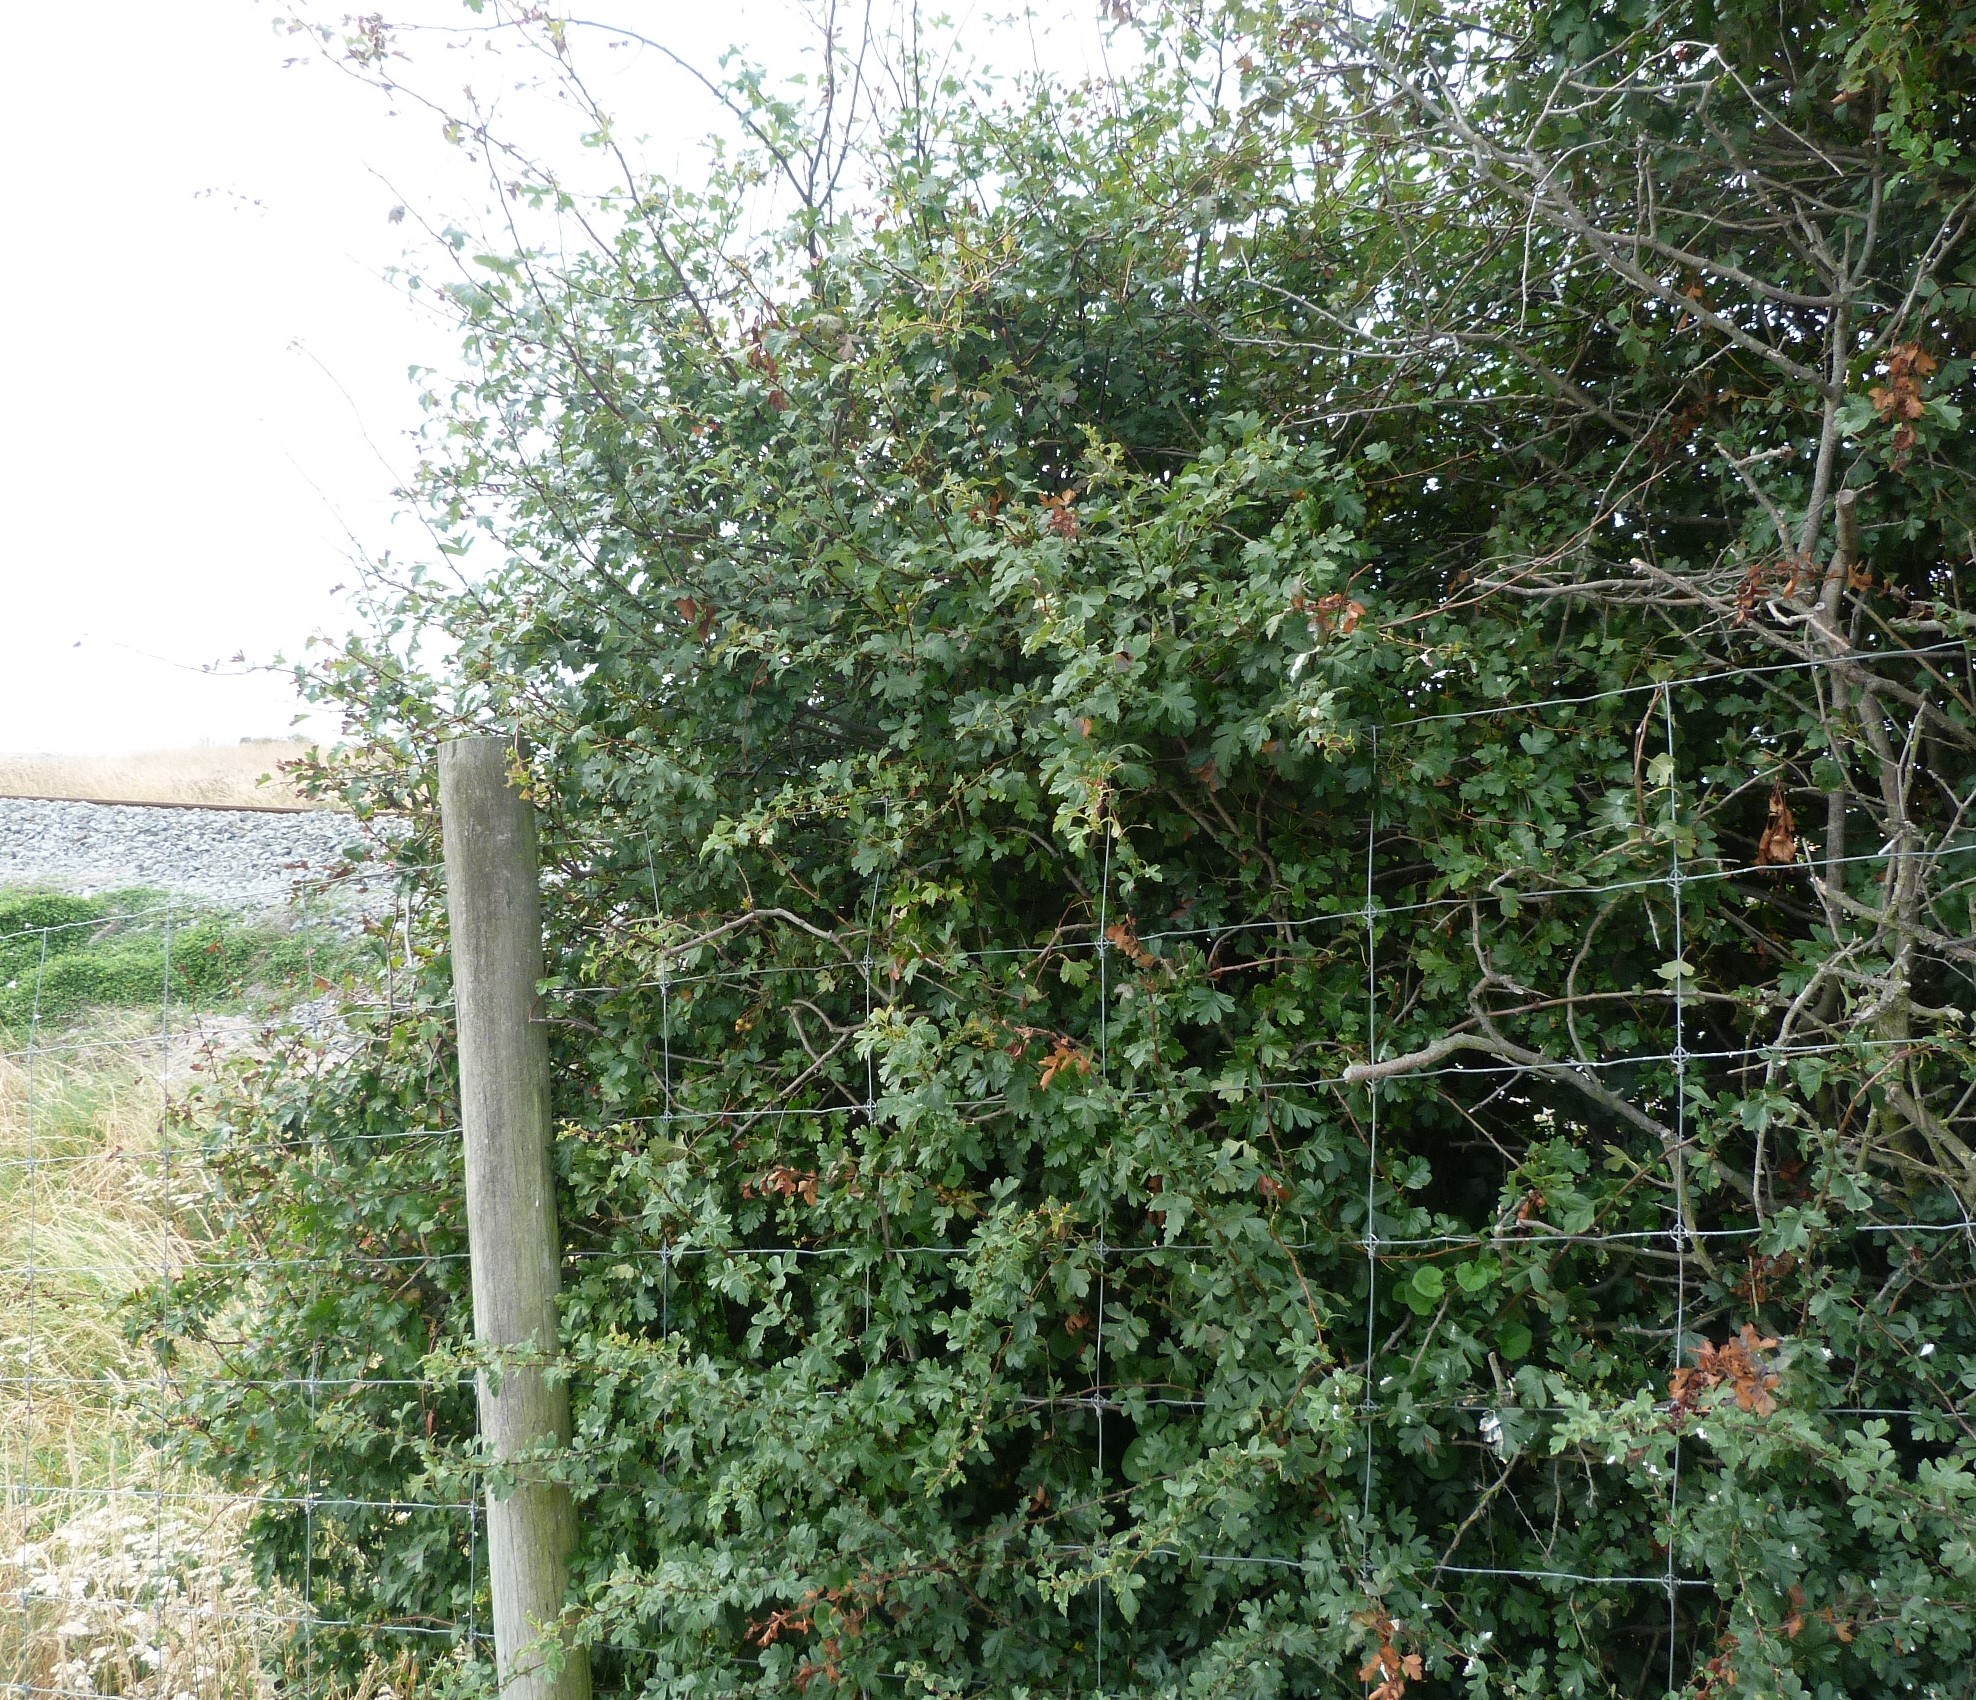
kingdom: Plantae
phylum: Tracheophyta
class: Magnoliopsida
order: Rosales
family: Rosaceae
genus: Crataegus
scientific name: Crataegus monogyna
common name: Hawthorn
